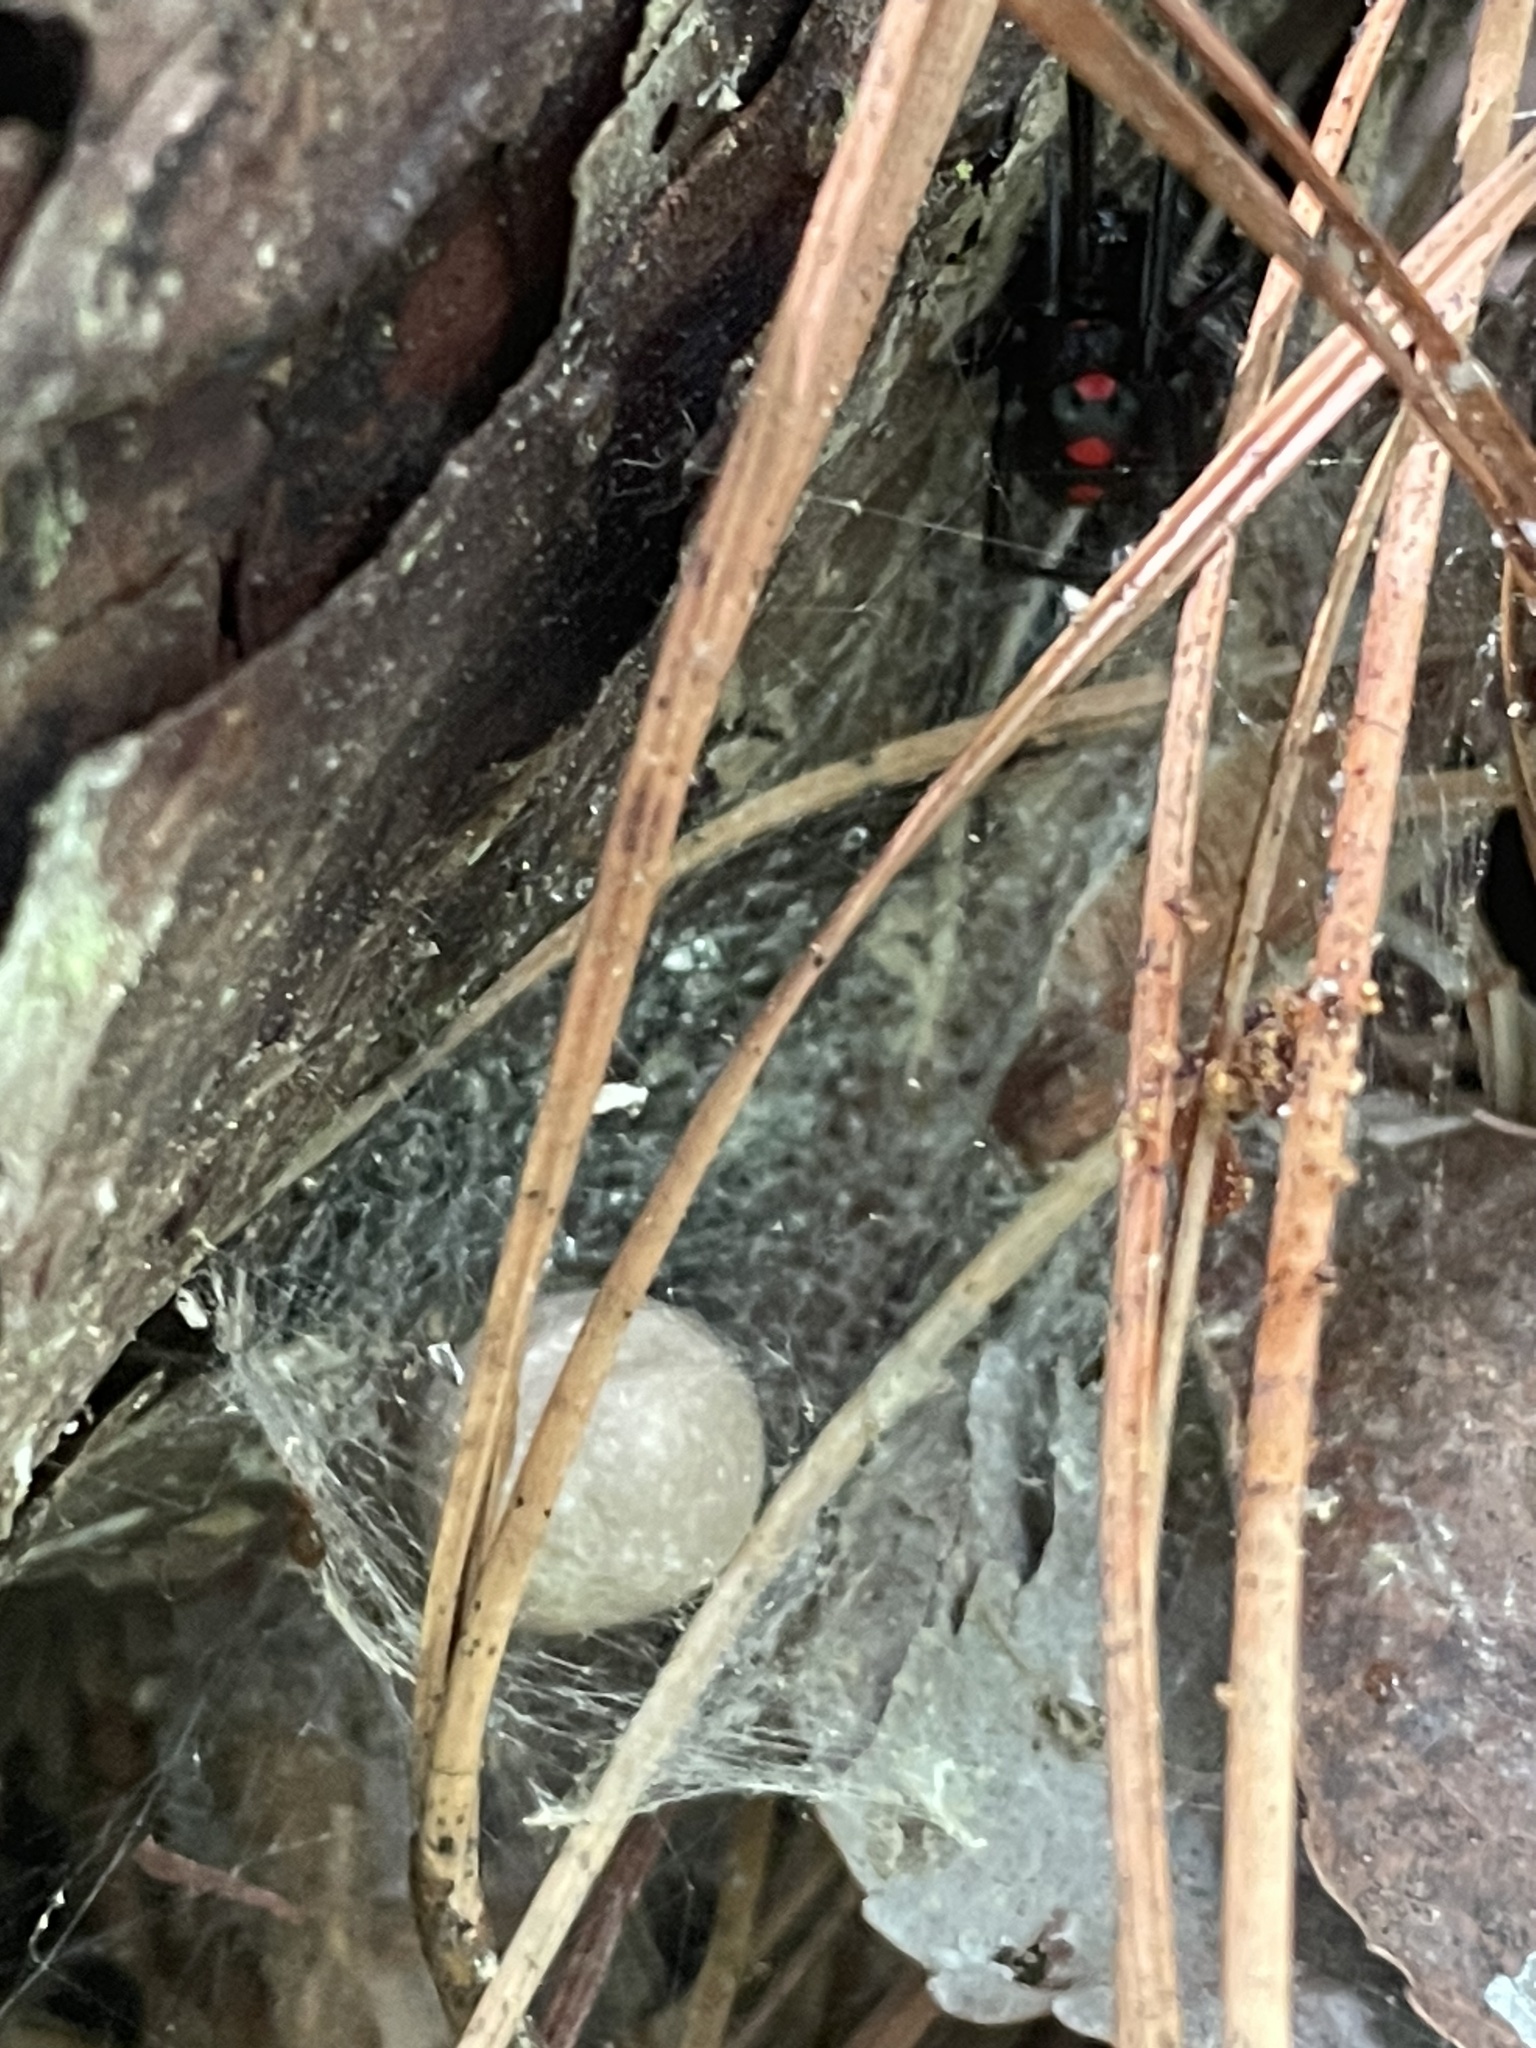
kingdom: Animalia
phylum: Arthropoda
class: Arachnida
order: Araneae
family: Theridiidae
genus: Latrodectus
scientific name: Latrodectus variolus
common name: Northern black widow
